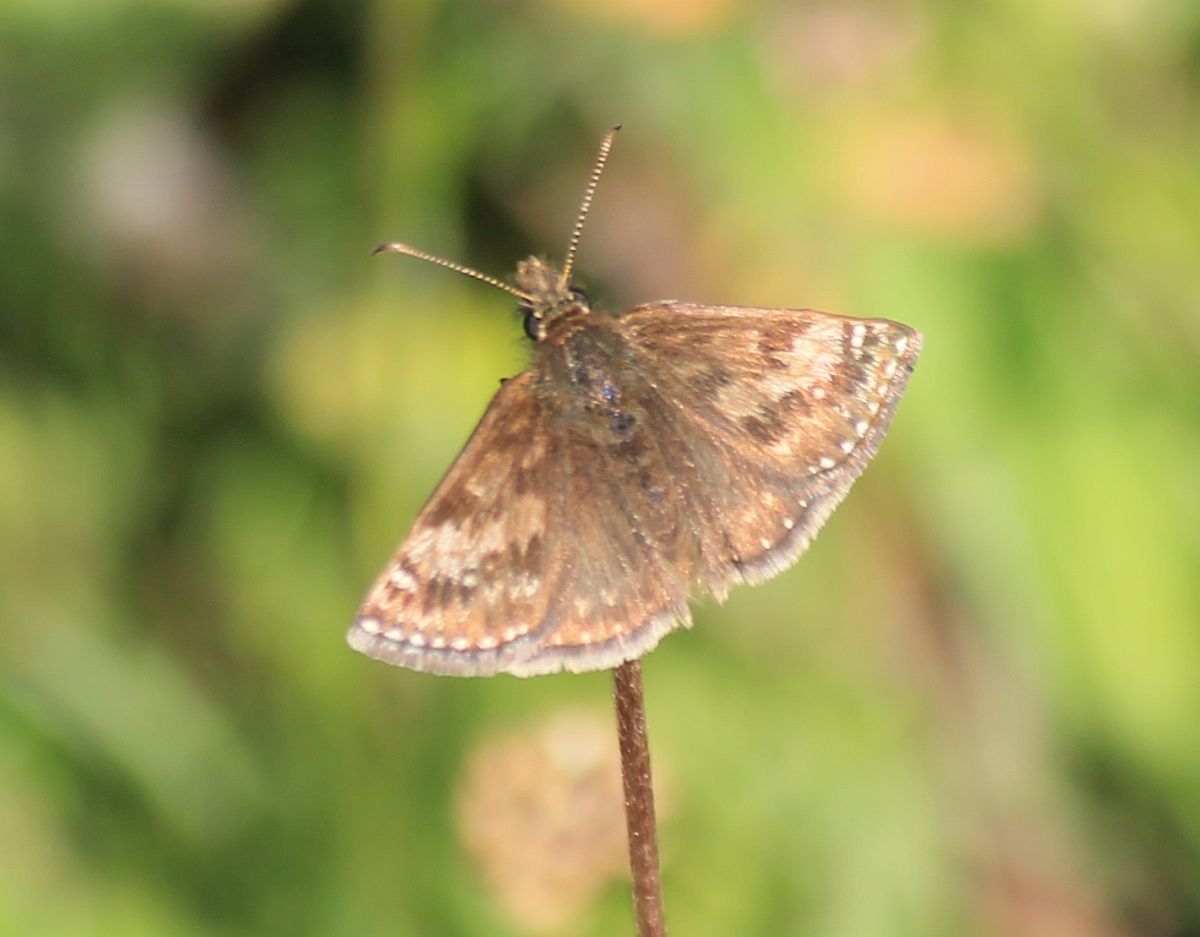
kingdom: Animalia
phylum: Arthropoda
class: Insecta
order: Lepidoptera
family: Hesperiidae
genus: Erynnis
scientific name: Erynnis tages
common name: Dingy skipper
